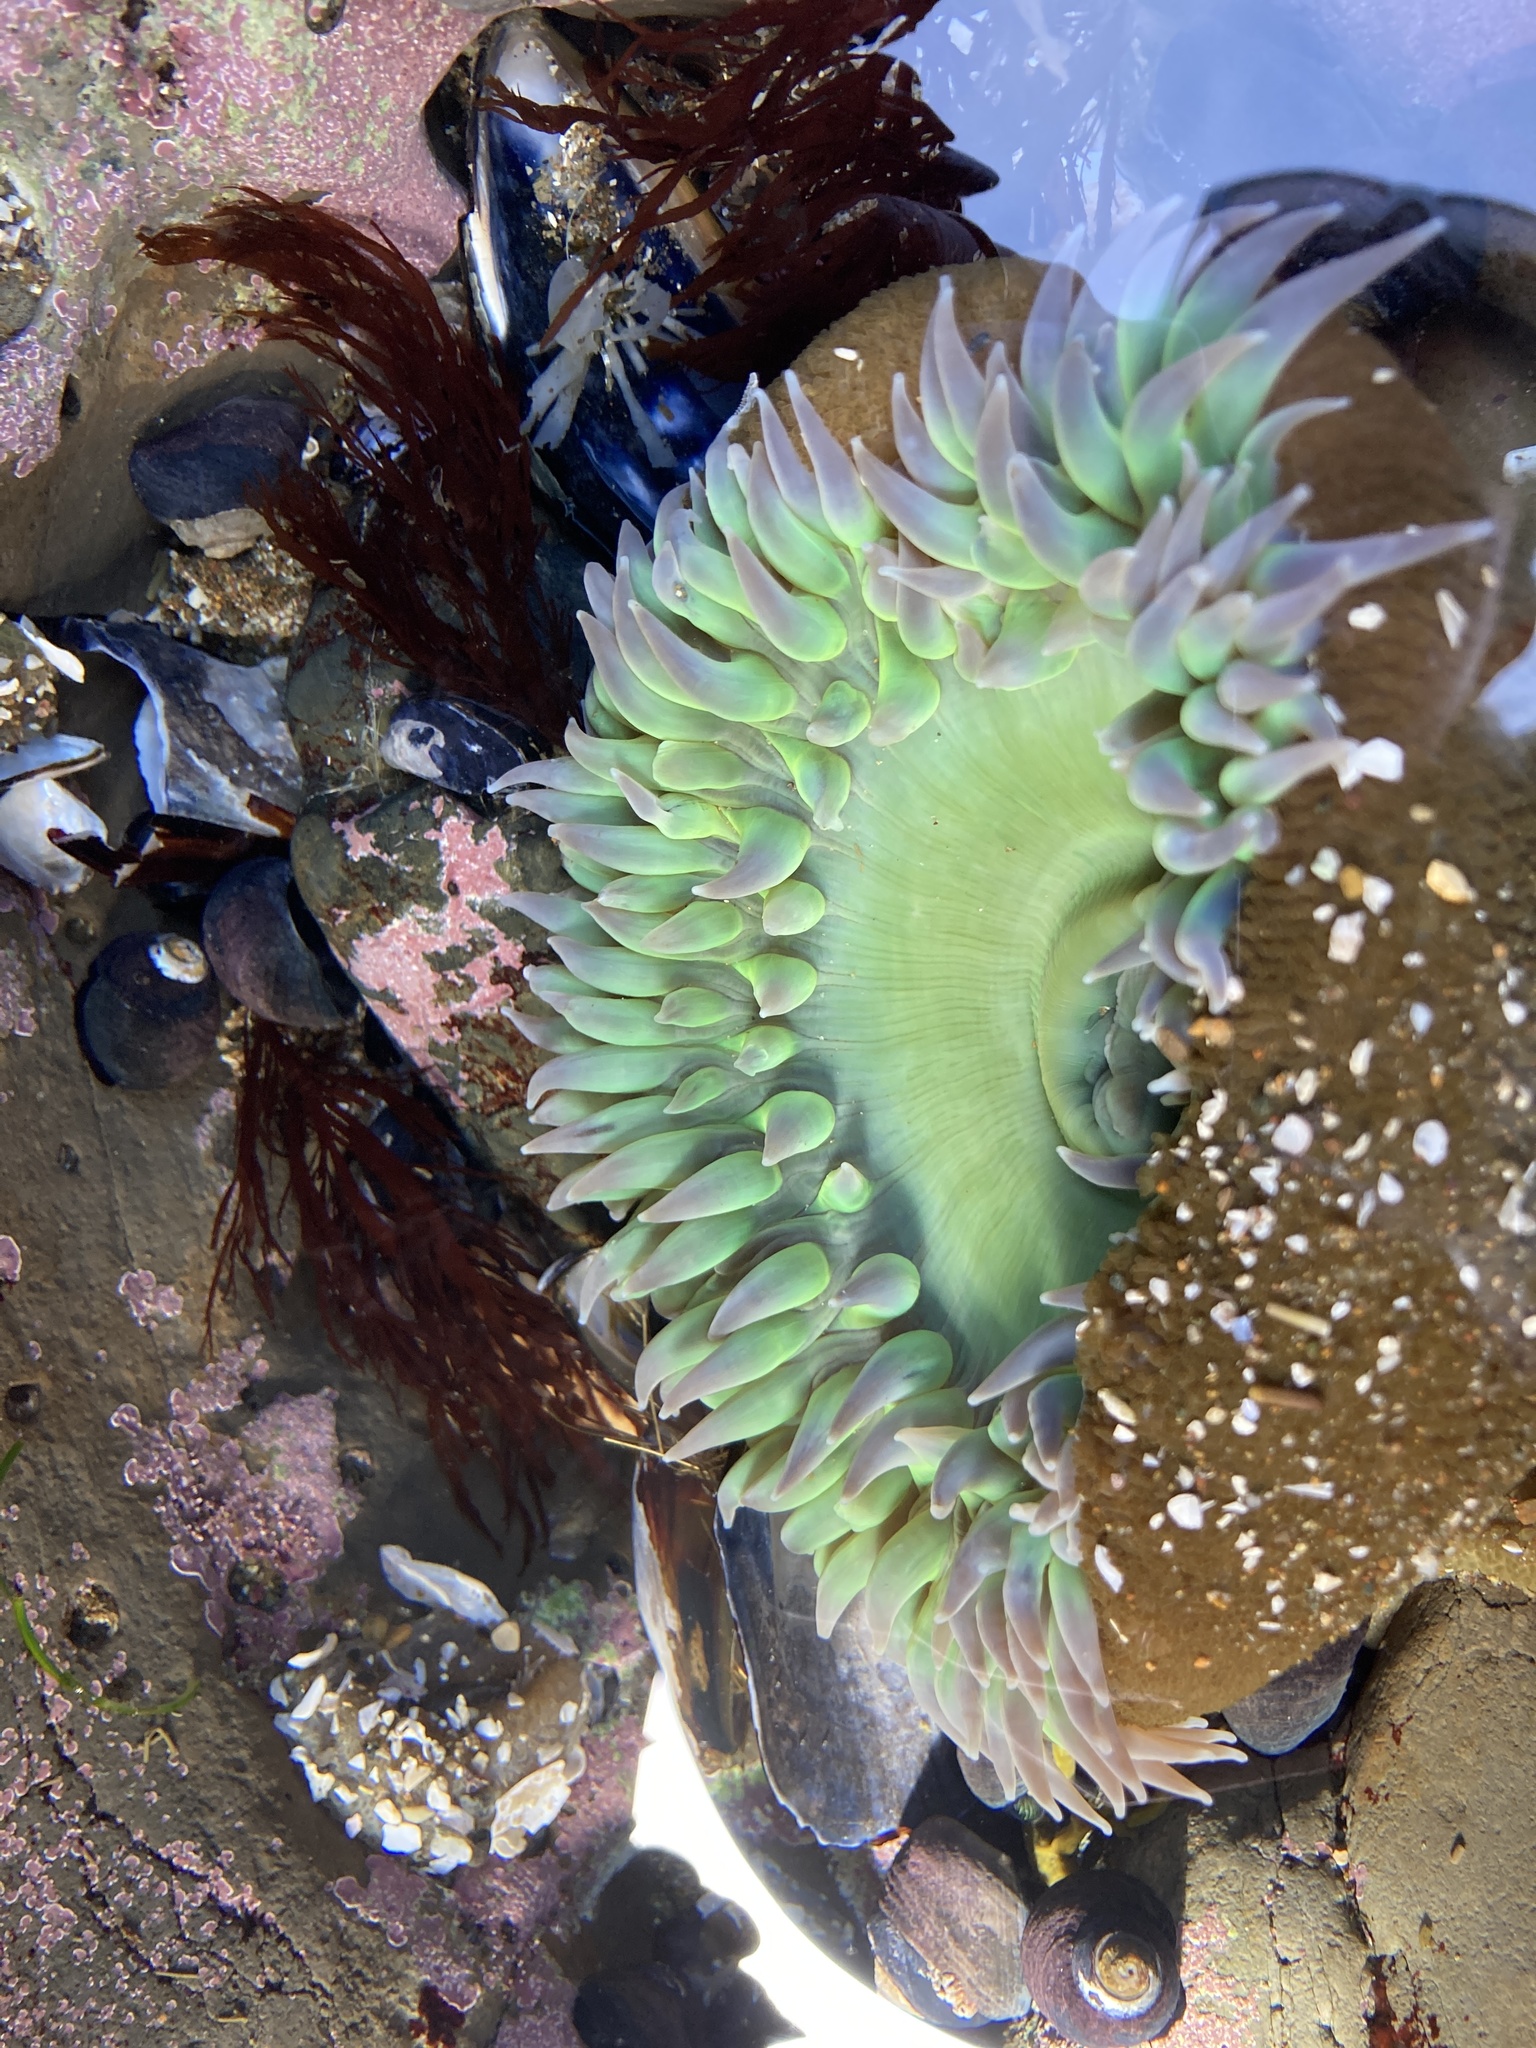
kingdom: Animalia
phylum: Cnidaria
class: Anthozoa
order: Actiniaria
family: Actiniidae
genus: Anthopleura
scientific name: Anthopleura xanthogrammica
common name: Giant green anemone
